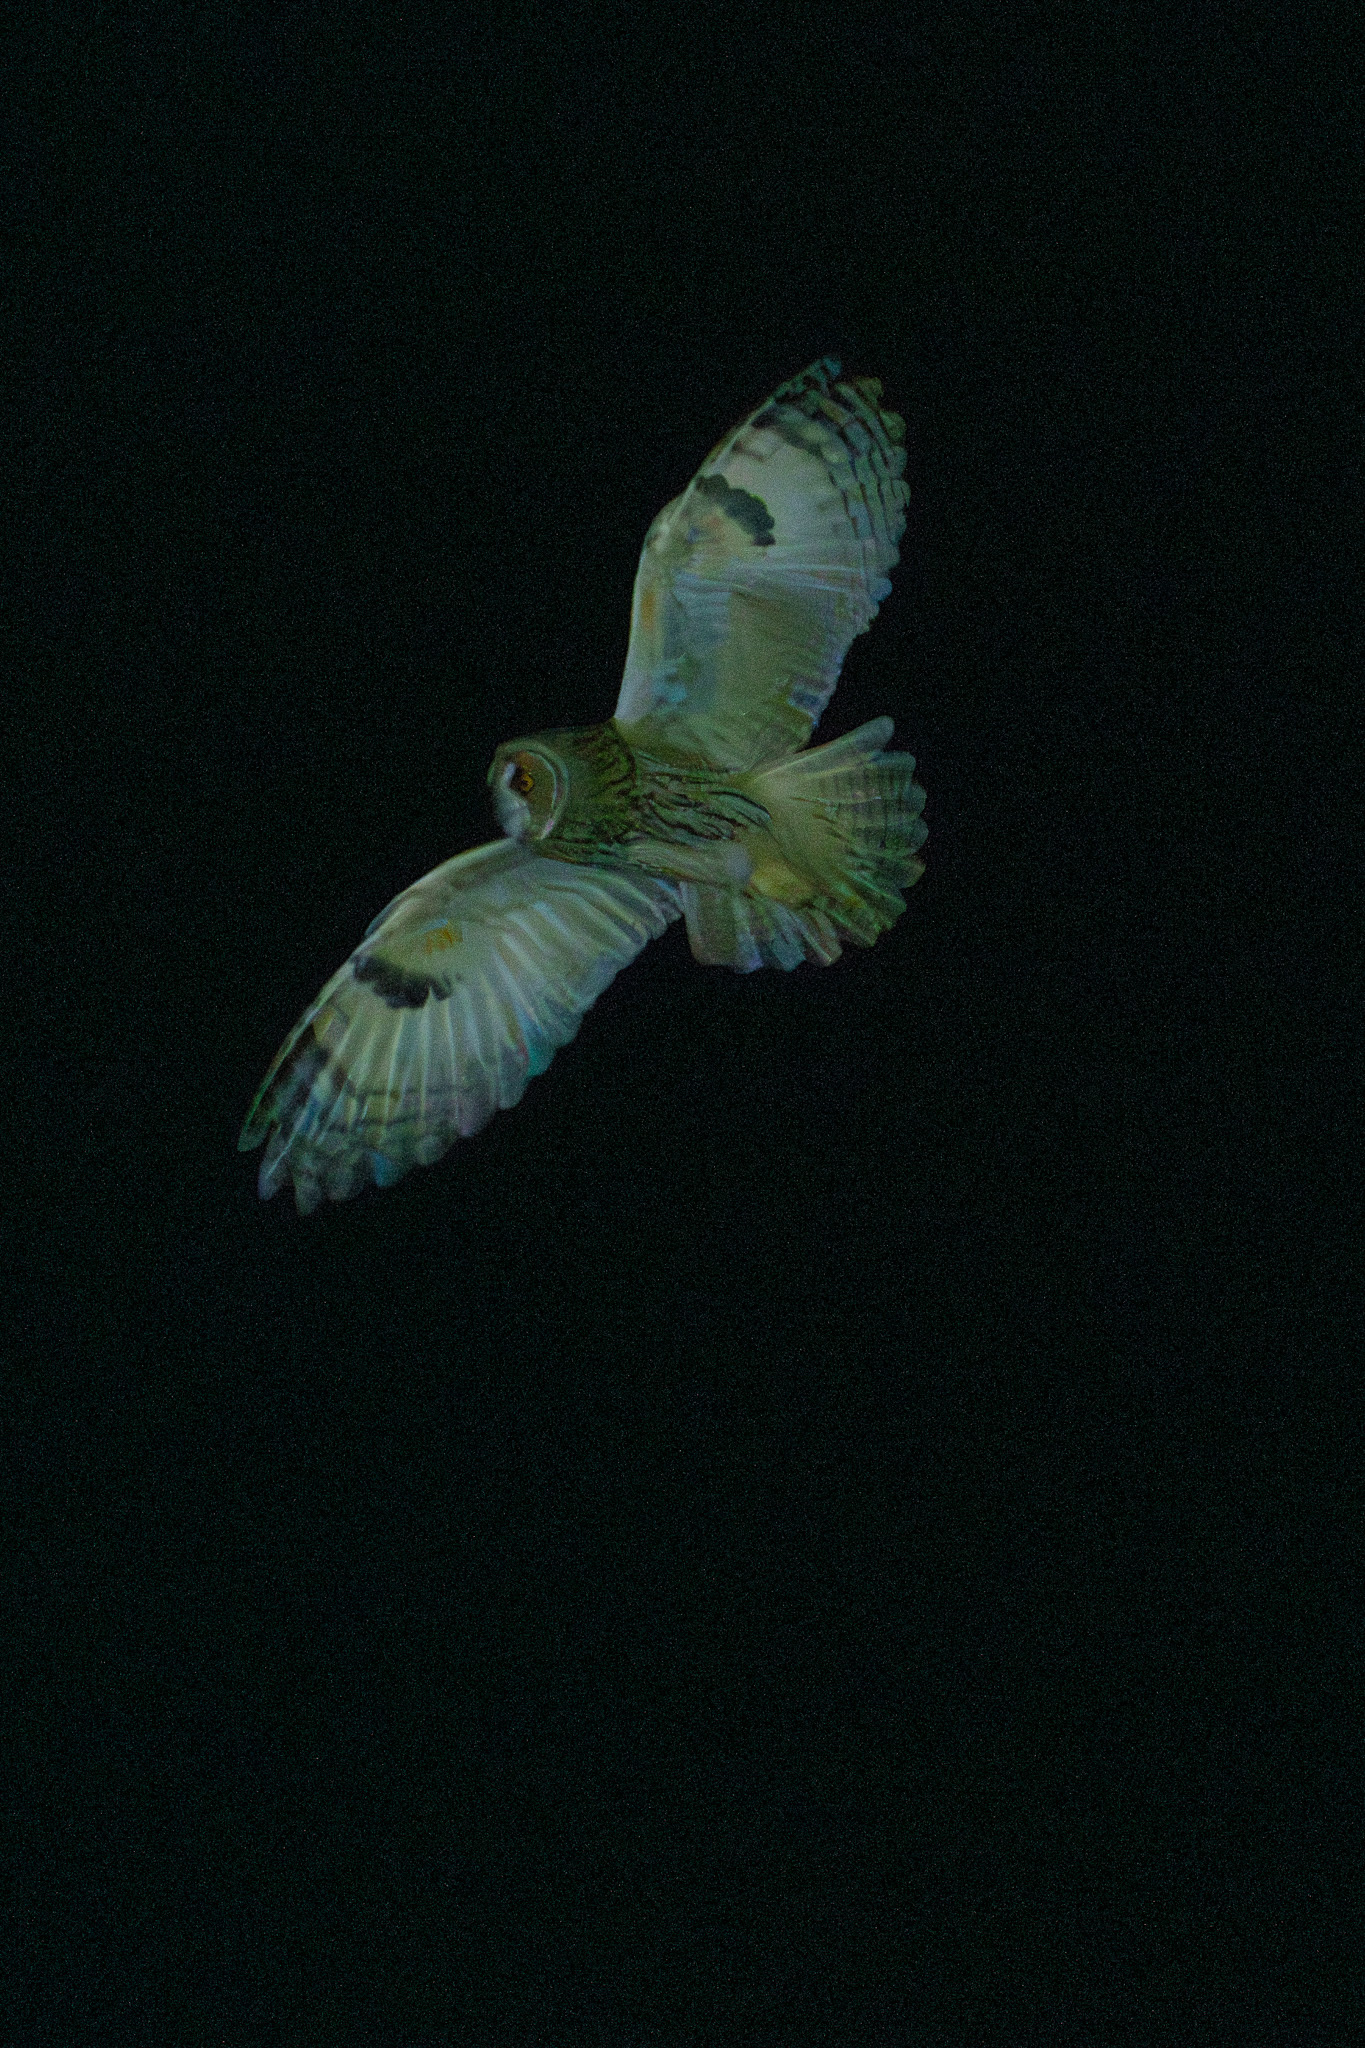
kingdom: Animalia
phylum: Chordata
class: Aves
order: Strigiformes
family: Strigidae
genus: Asio
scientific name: Asio otus
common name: Long-eared owl
